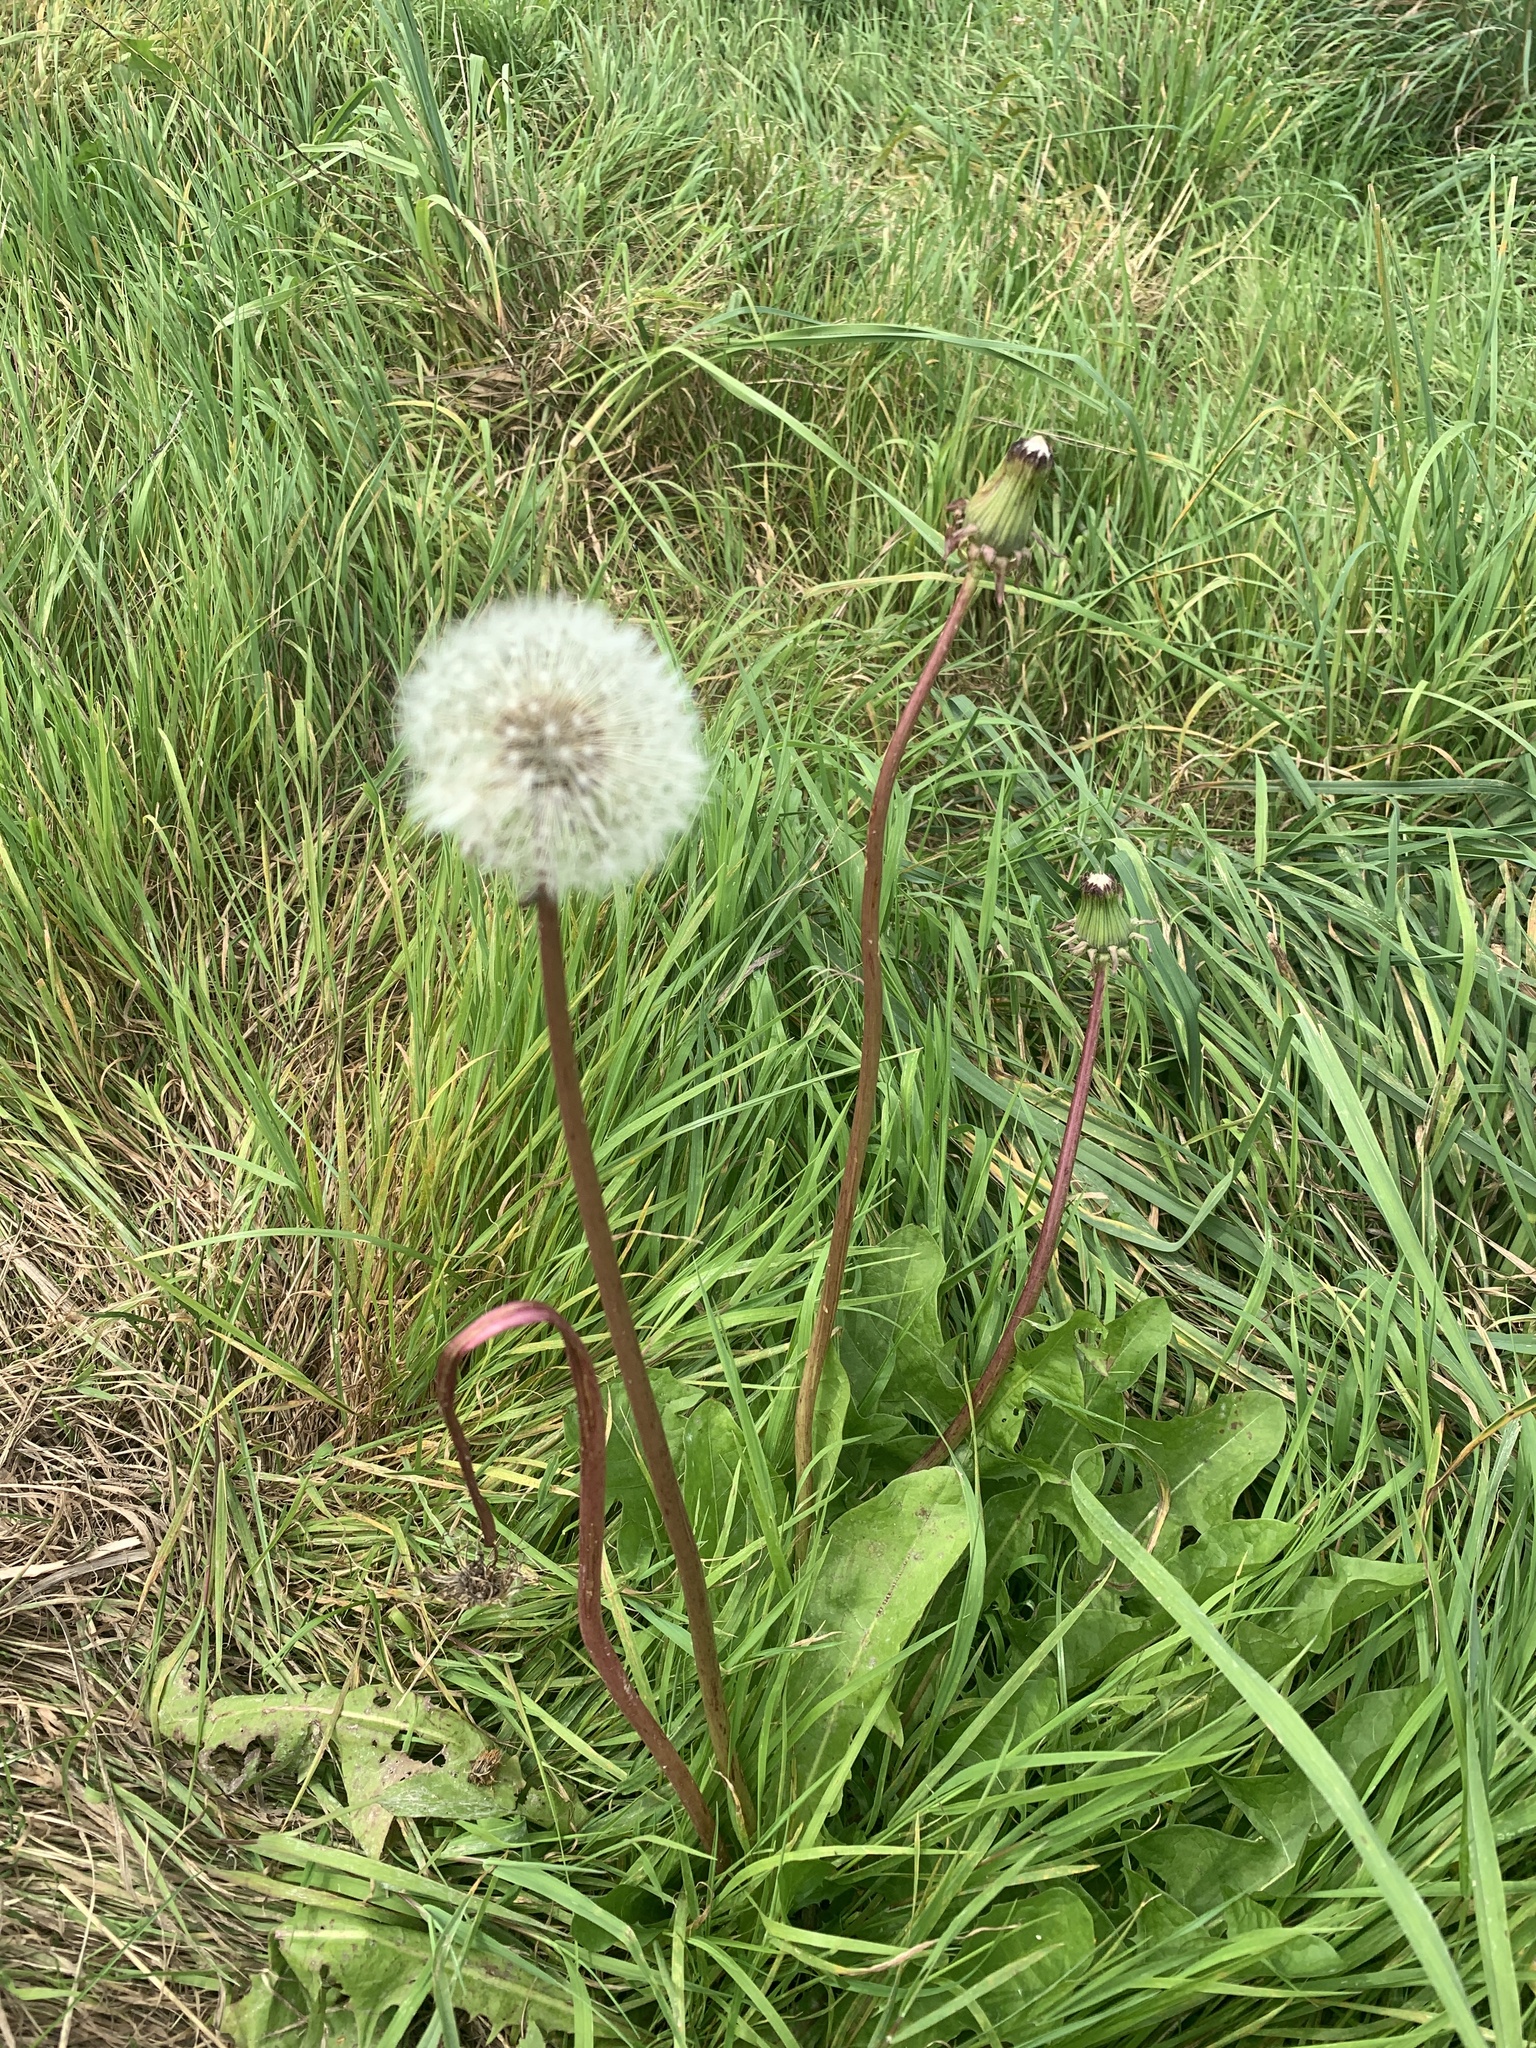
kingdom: Plantae
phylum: Tracheophyta
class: Magnoliopsida
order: Asterales
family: Asteraceae
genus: Taraxacum
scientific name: Taraxacum officinale
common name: Common dandelion
